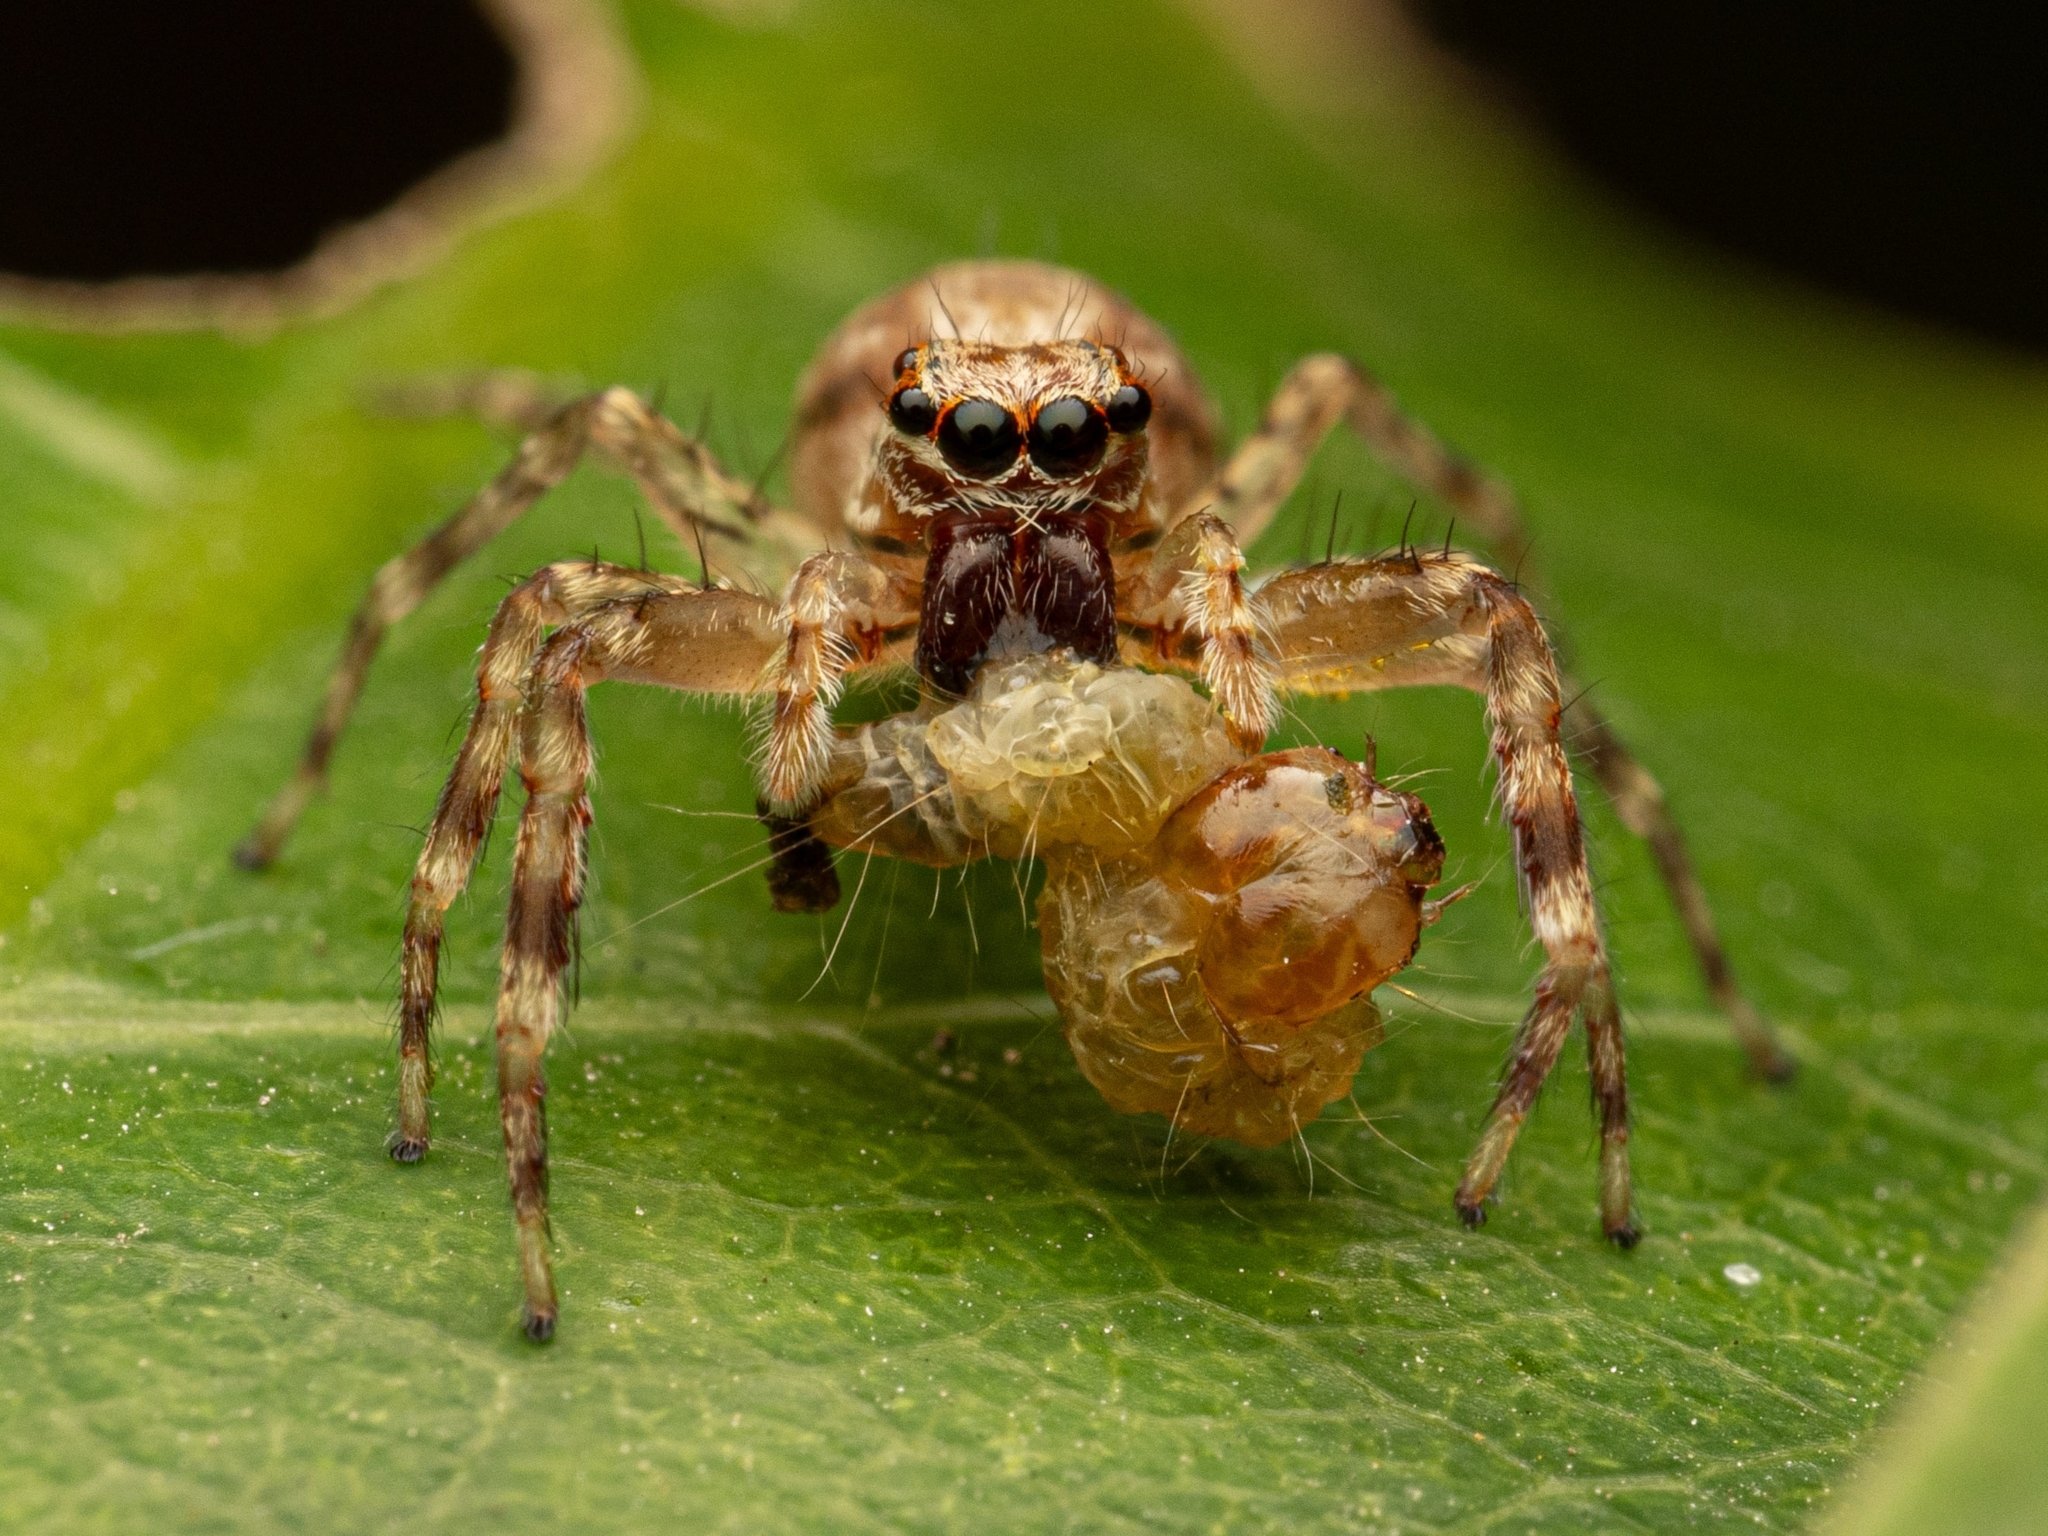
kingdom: Animalia
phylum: Arthropoda
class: Arachnida
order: Araneae
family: Salticidae
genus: Helpis
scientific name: Helpis minitabunda
